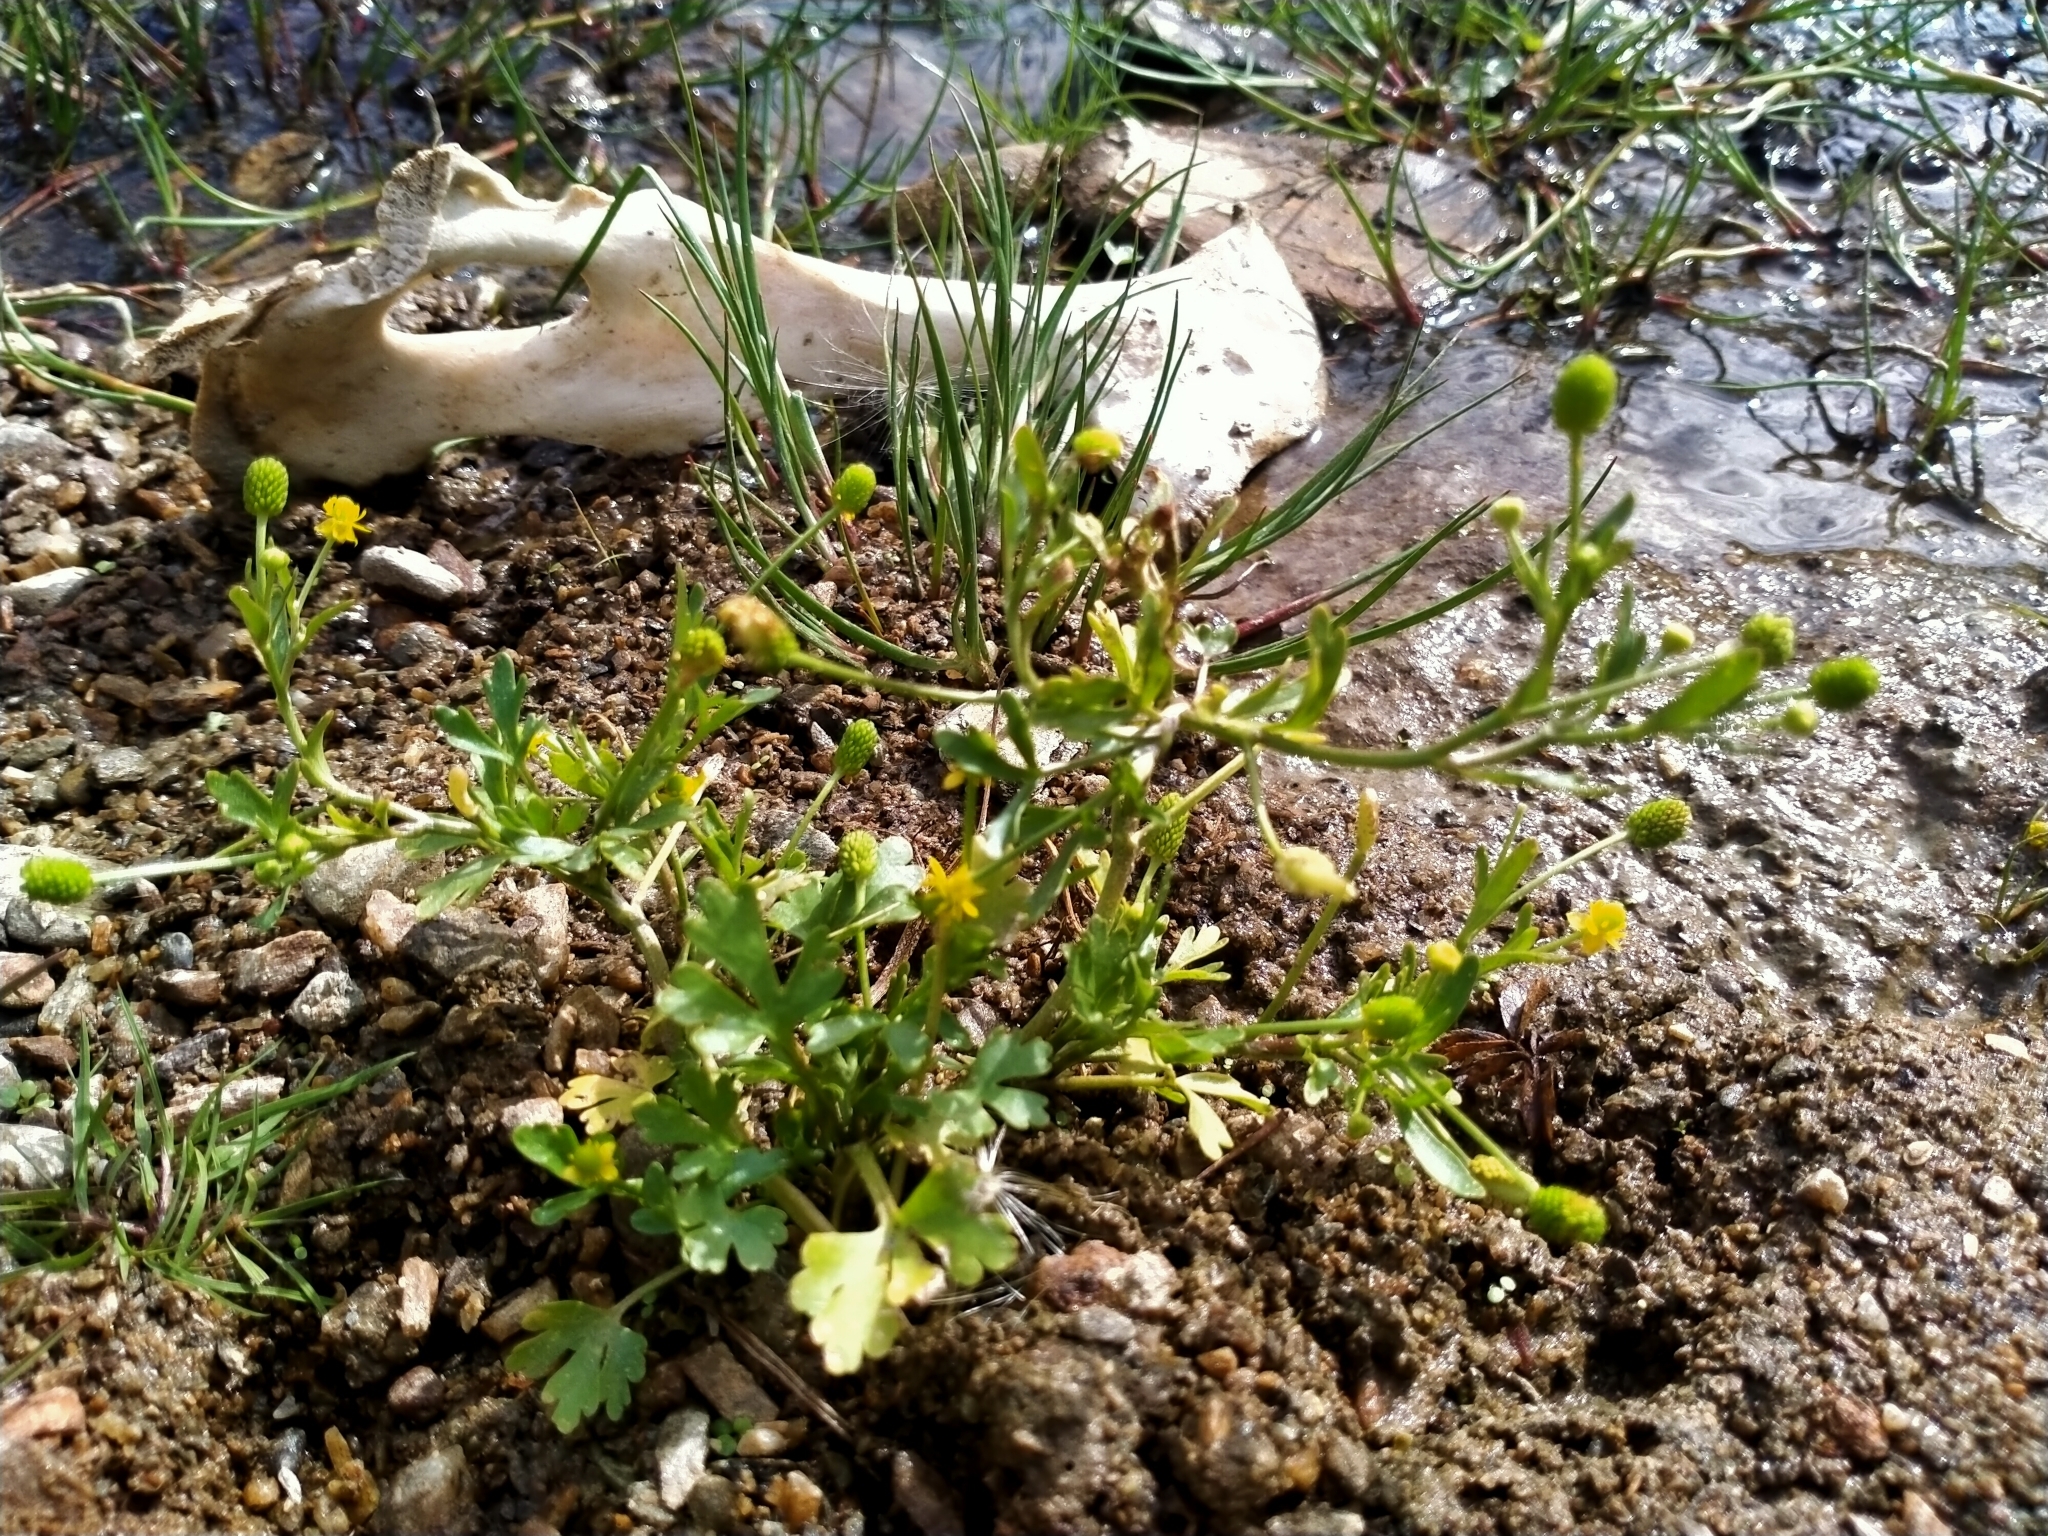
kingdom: Plantae
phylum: Tracheophyta
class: Magnoliopsida
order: Ranunculales
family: Ranunculaceae
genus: Ranunculus
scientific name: Ranunculus sceleratus
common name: Celery-leaved buttercup
